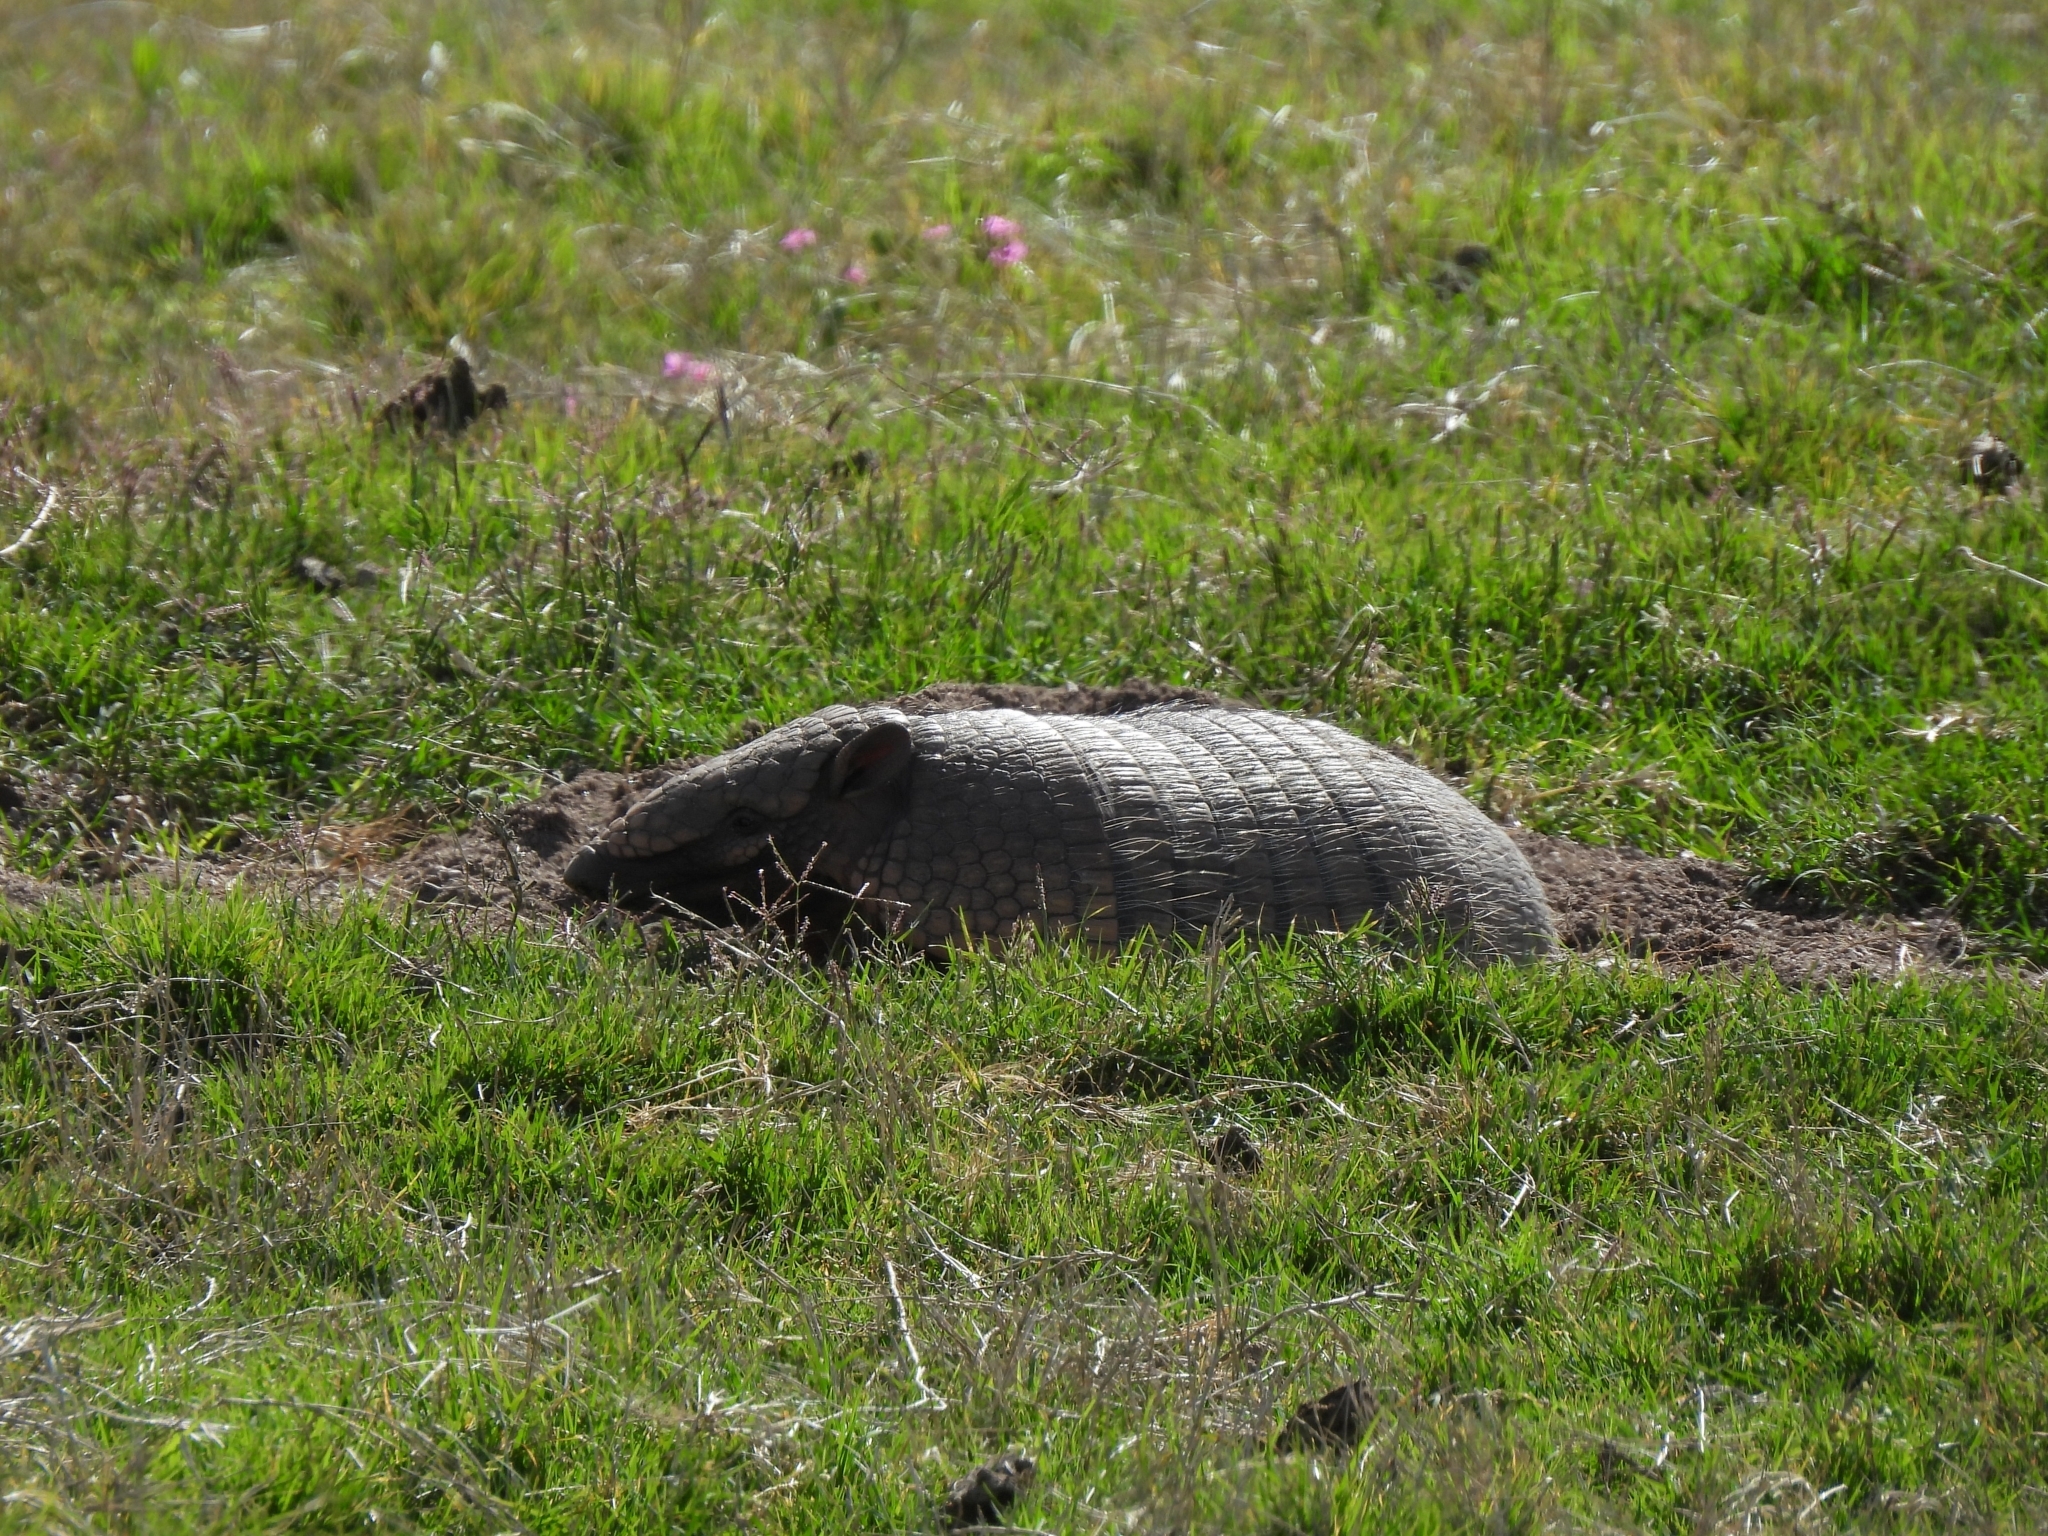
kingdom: Animalia
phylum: Chordata
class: Mammalia
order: Cingulata
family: Dasypodidae
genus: Euphractus
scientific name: Euphractus sexcinctus
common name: Six-banded armadillo
